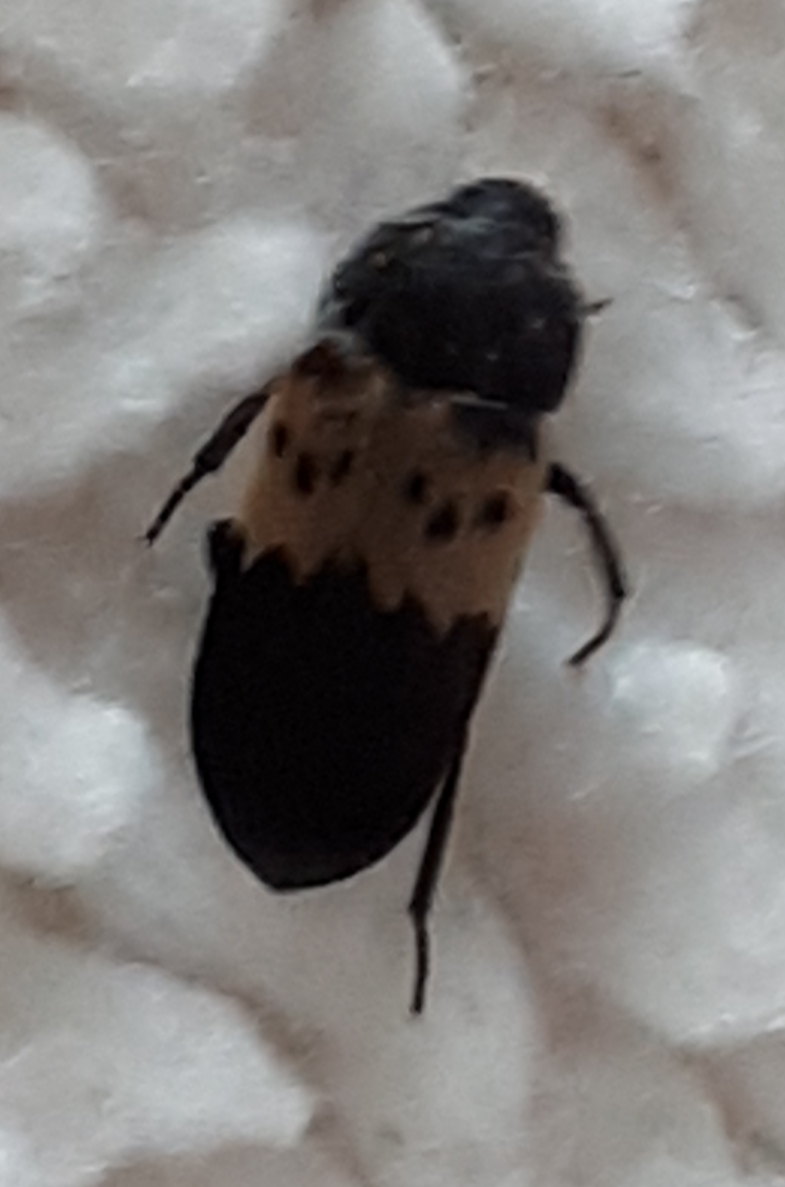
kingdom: Animalia
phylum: Arthropoda
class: Insecta
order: Coleoptera
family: Dermestidae
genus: Dermestes
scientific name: Dermestes lardarius
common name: Larder beetle
